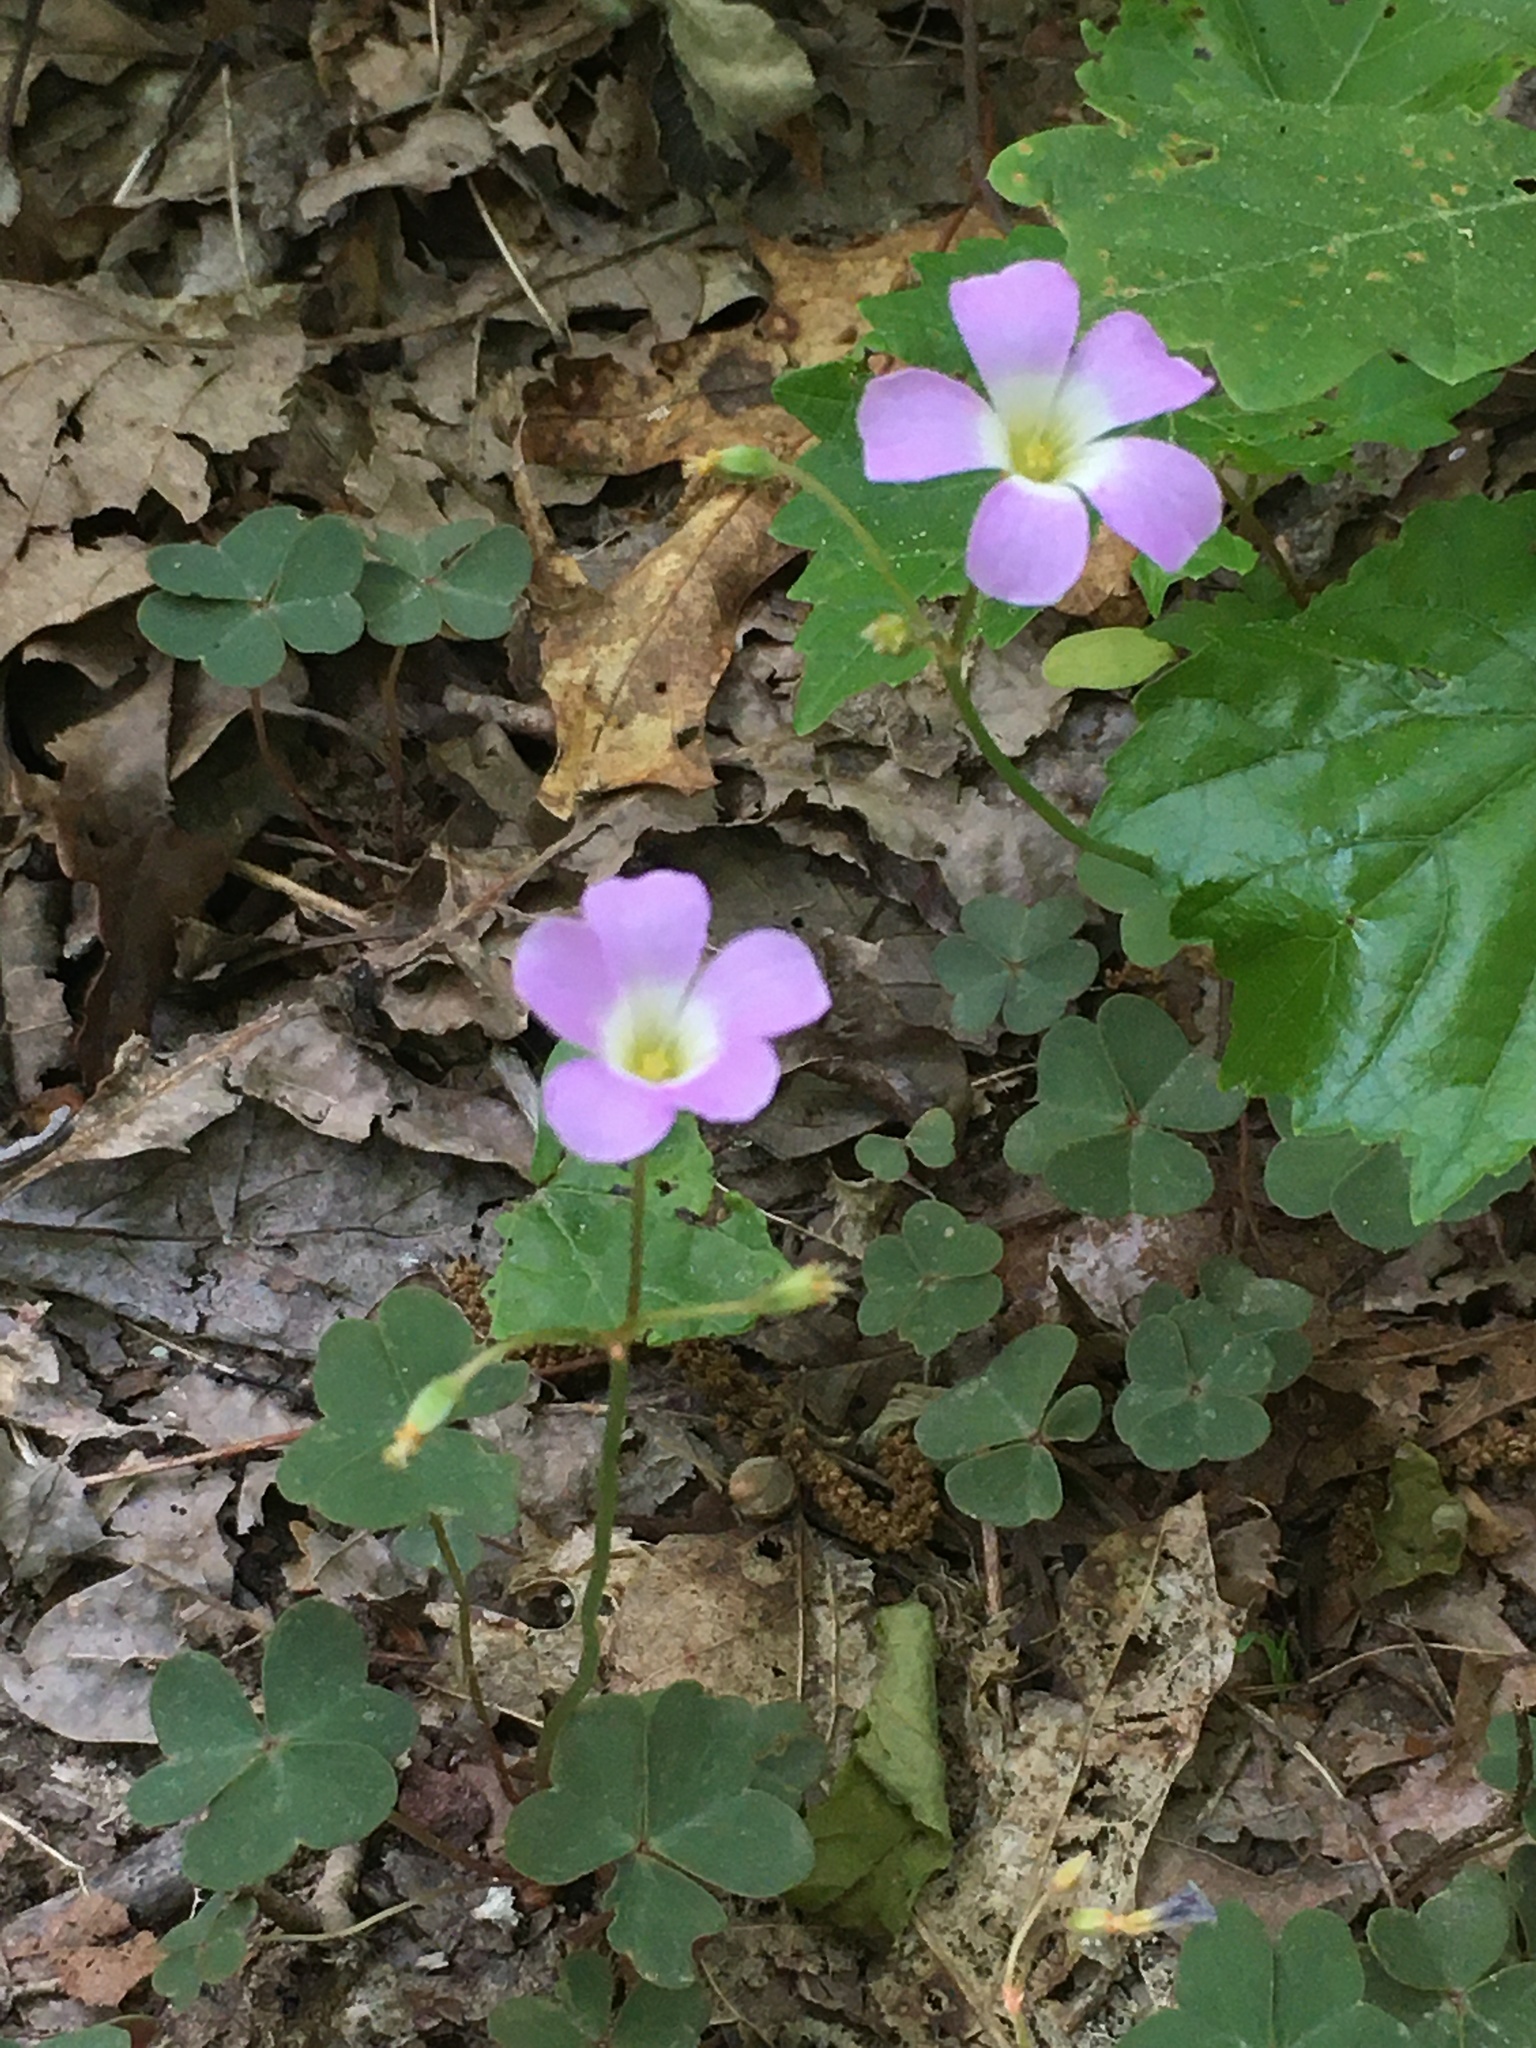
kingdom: Plantae
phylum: Tracheophyta
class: Magnoliopsida
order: Oxalidales
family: Oxalidaceae
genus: Oxalis
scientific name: Oxalis violacea
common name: Violet wood-sorrel
